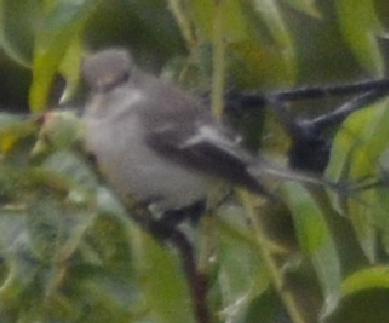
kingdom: Animalia
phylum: Chordata
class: Aves
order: Passeriformes
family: Muscicapidae
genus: Ficedula
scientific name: Ficedula hypoleuca
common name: European pied flycatcher
